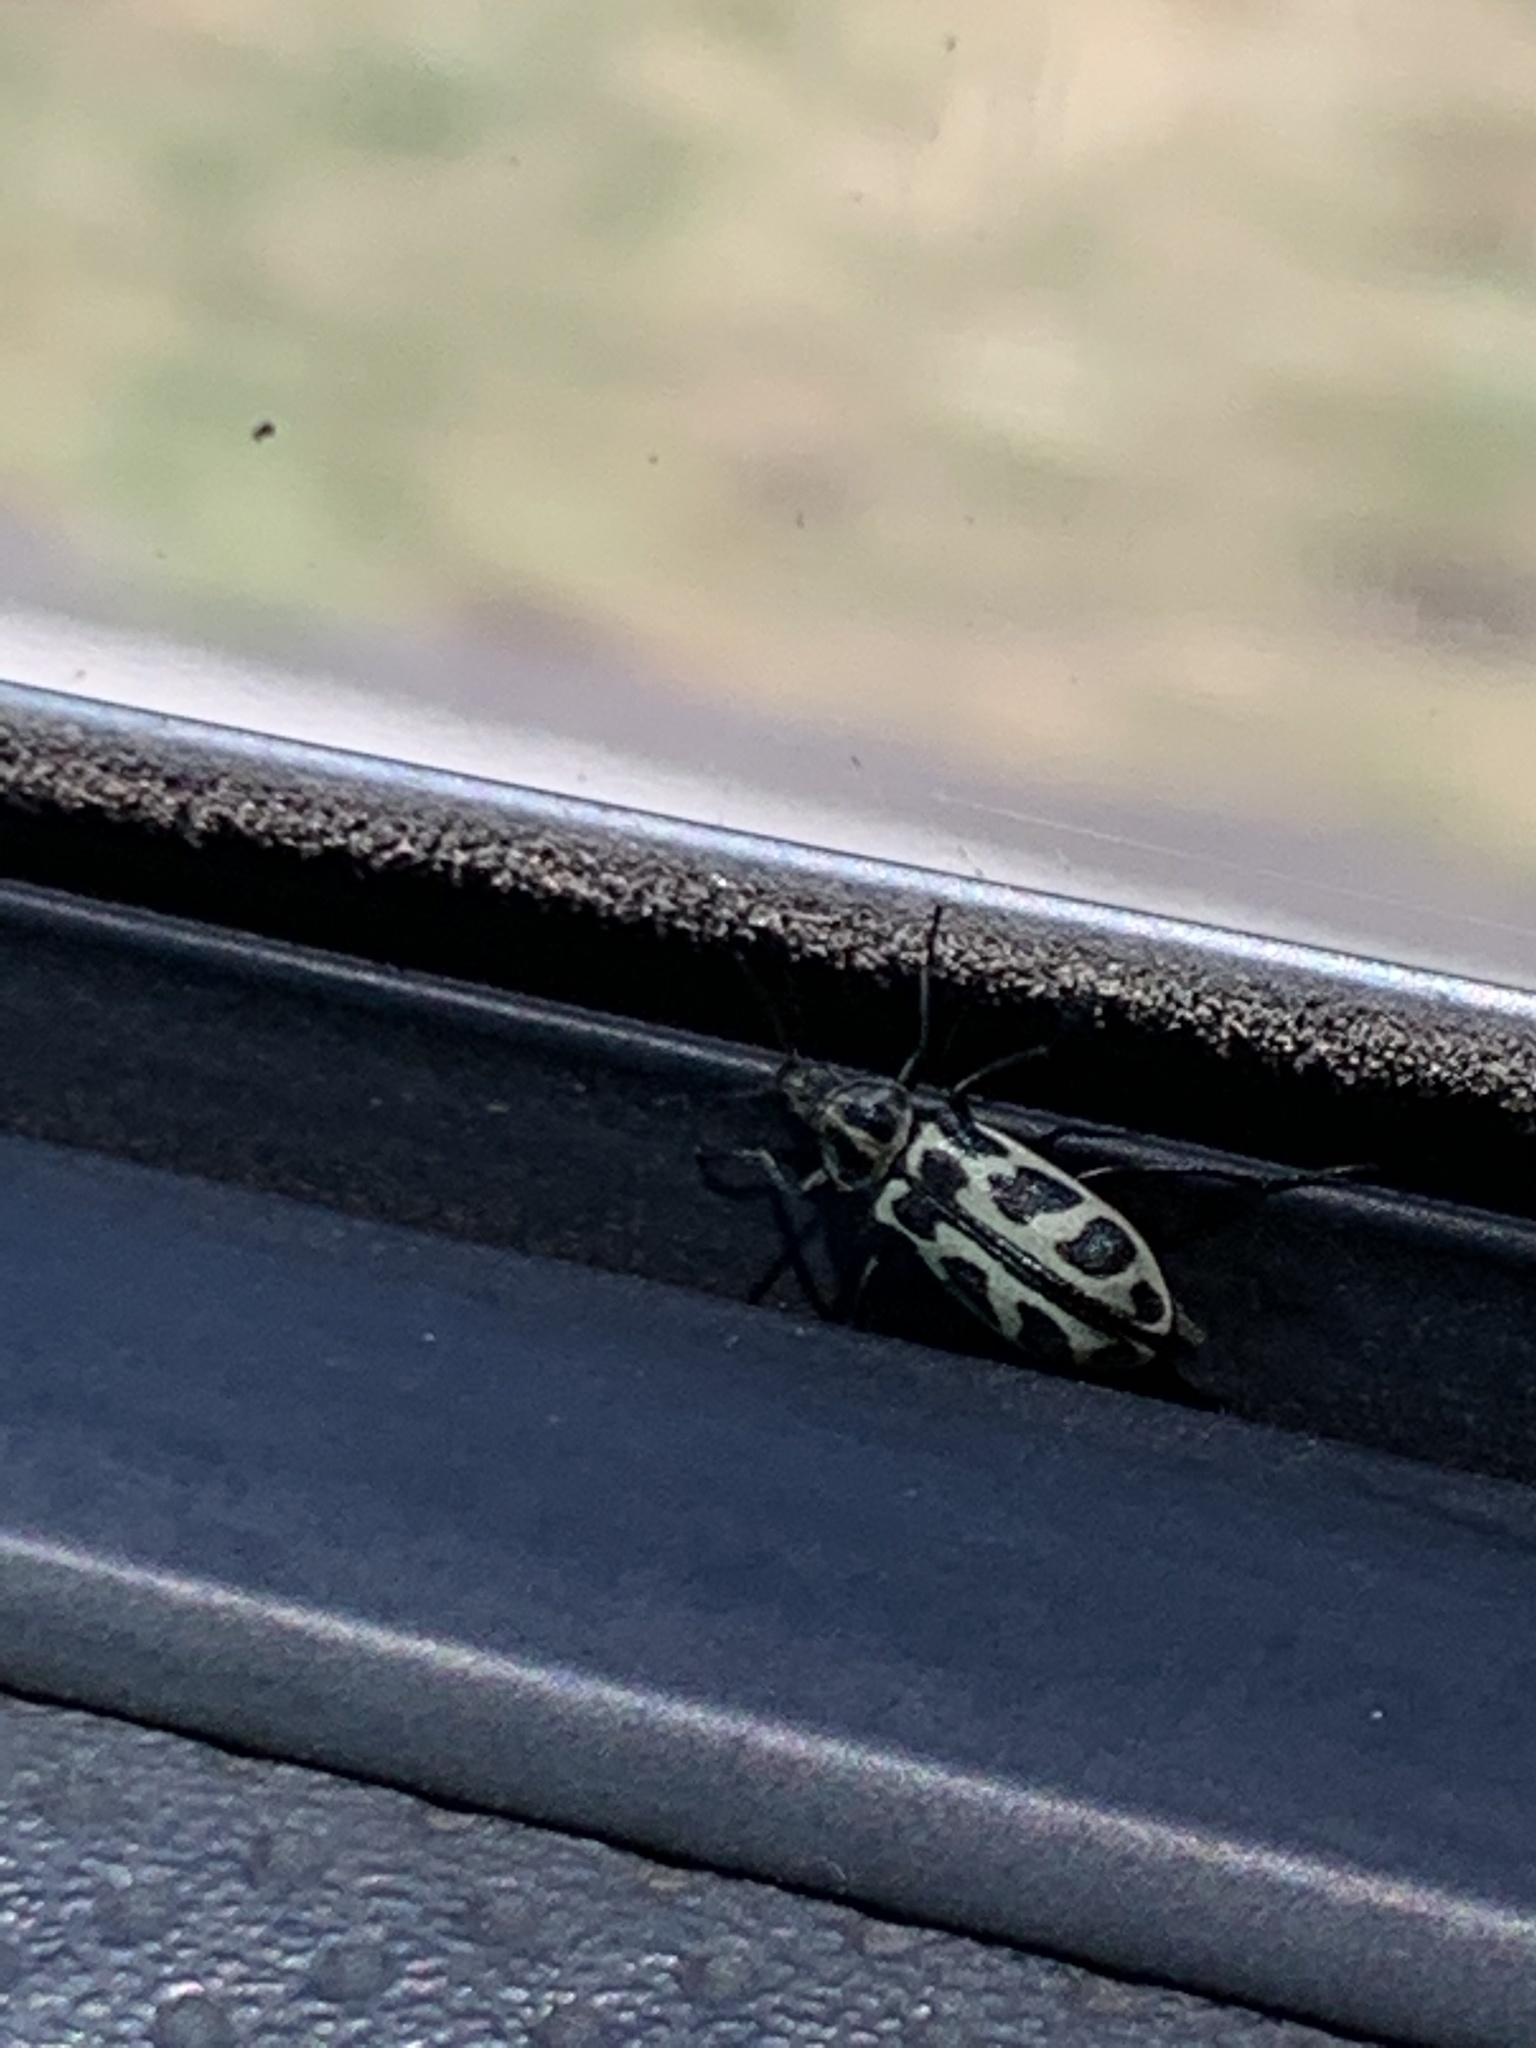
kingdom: Animalia
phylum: Arthropoda
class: Insecta
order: Coleoptera
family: Melyridae
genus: Astylus
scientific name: Astylus atromaculatus
